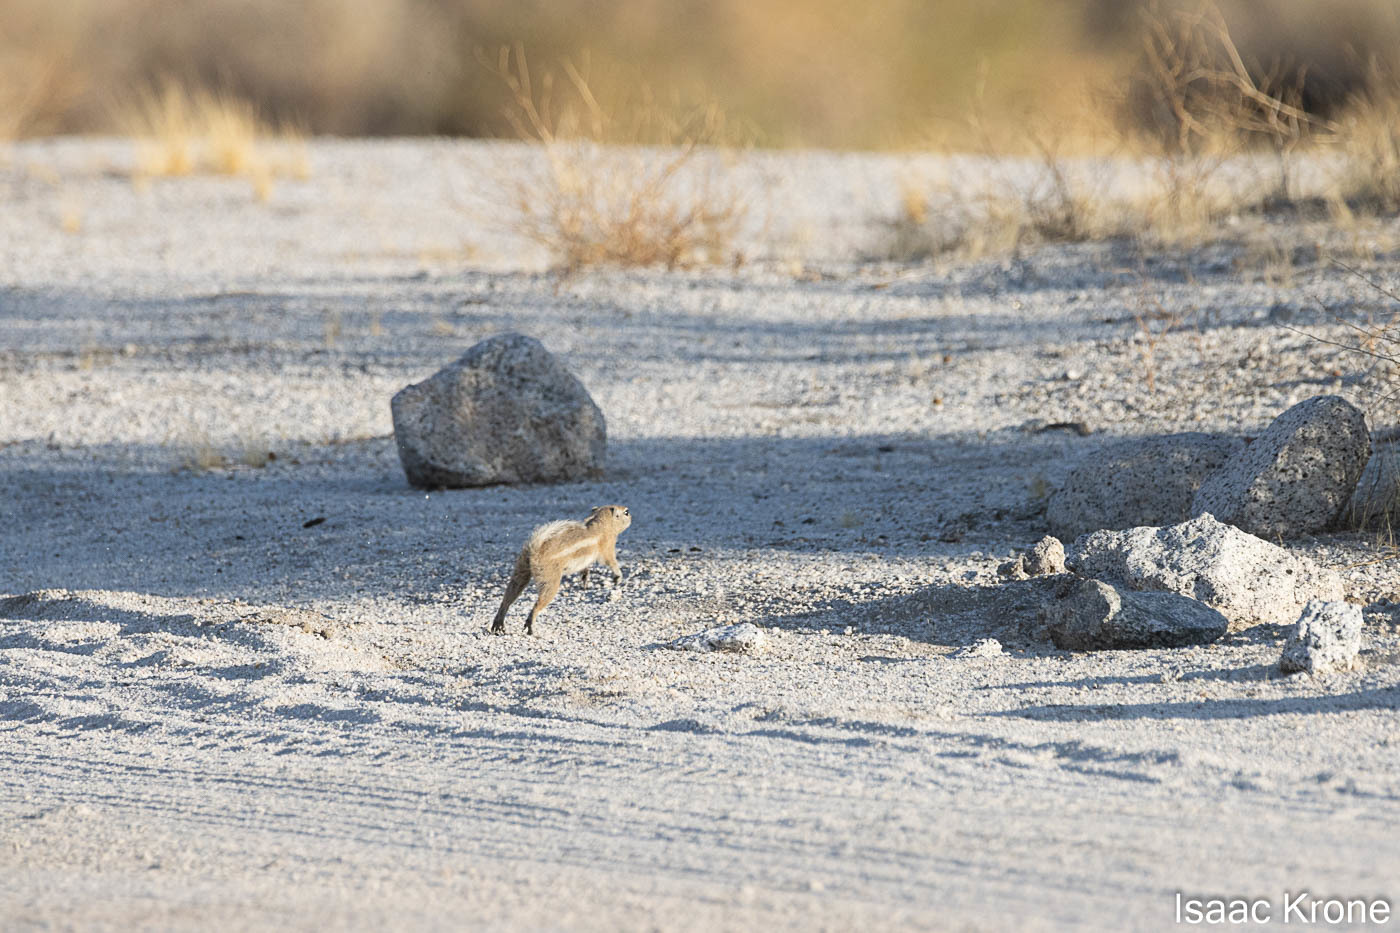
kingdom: Animalia
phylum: Chordata
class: Mammalia
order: Rodentia
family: Sciuridae
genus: Ammospermophilus
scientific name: Ammospermophilus leucurus
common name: White-tailed antelope squirrel
